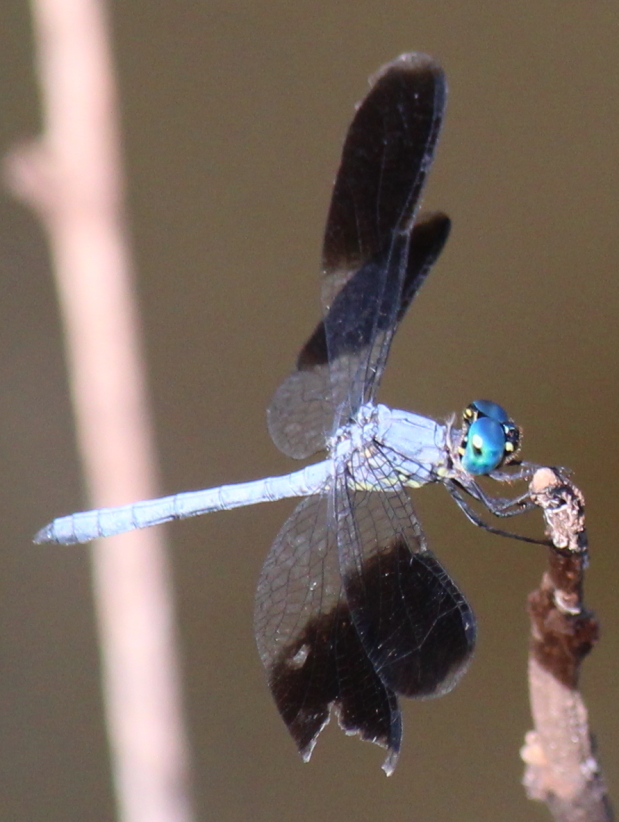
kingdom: Animalia
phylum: Arthropoda
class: Insecta
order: Odonata
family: Libellulidae
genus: Tetrathemis
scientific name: Tetrathemis polleni
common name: Black-splashed elf
